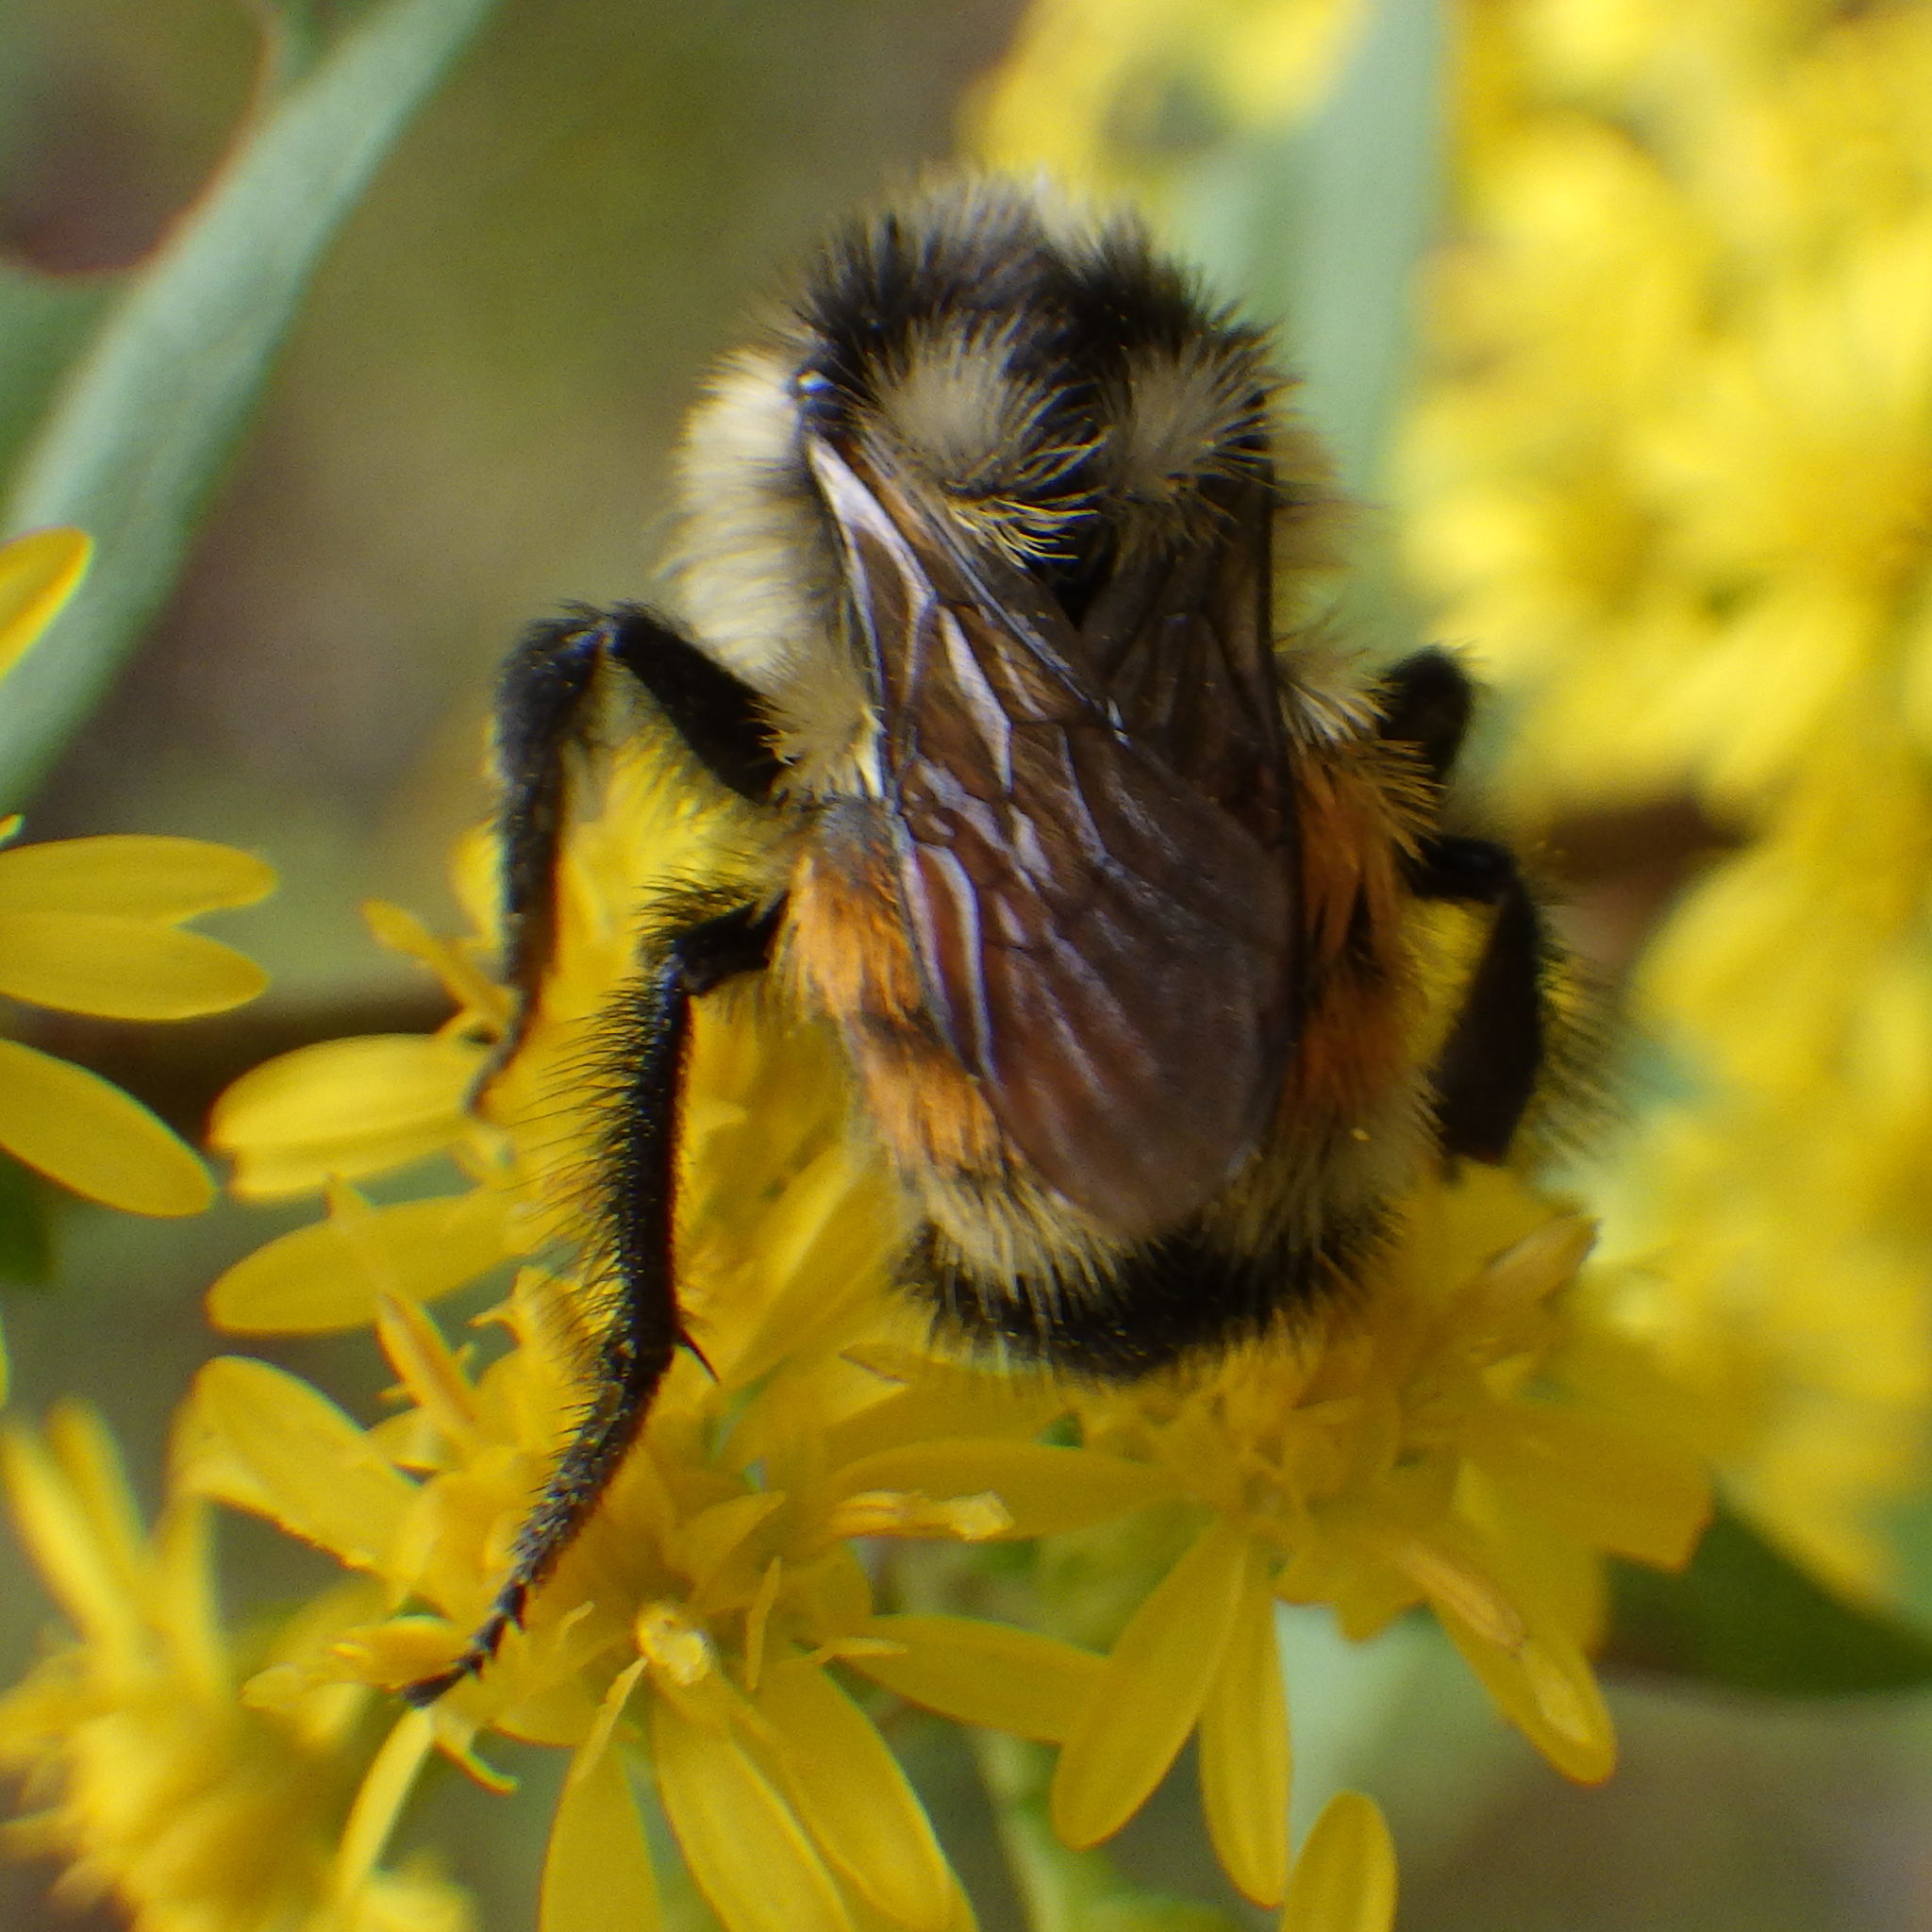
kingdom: Animalia
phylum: Arthropoda
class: Insecta
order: Hymenoptera
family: Apidae
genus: Bombus
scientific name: Bombus ternarius
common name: Tri-colored bumble bee
